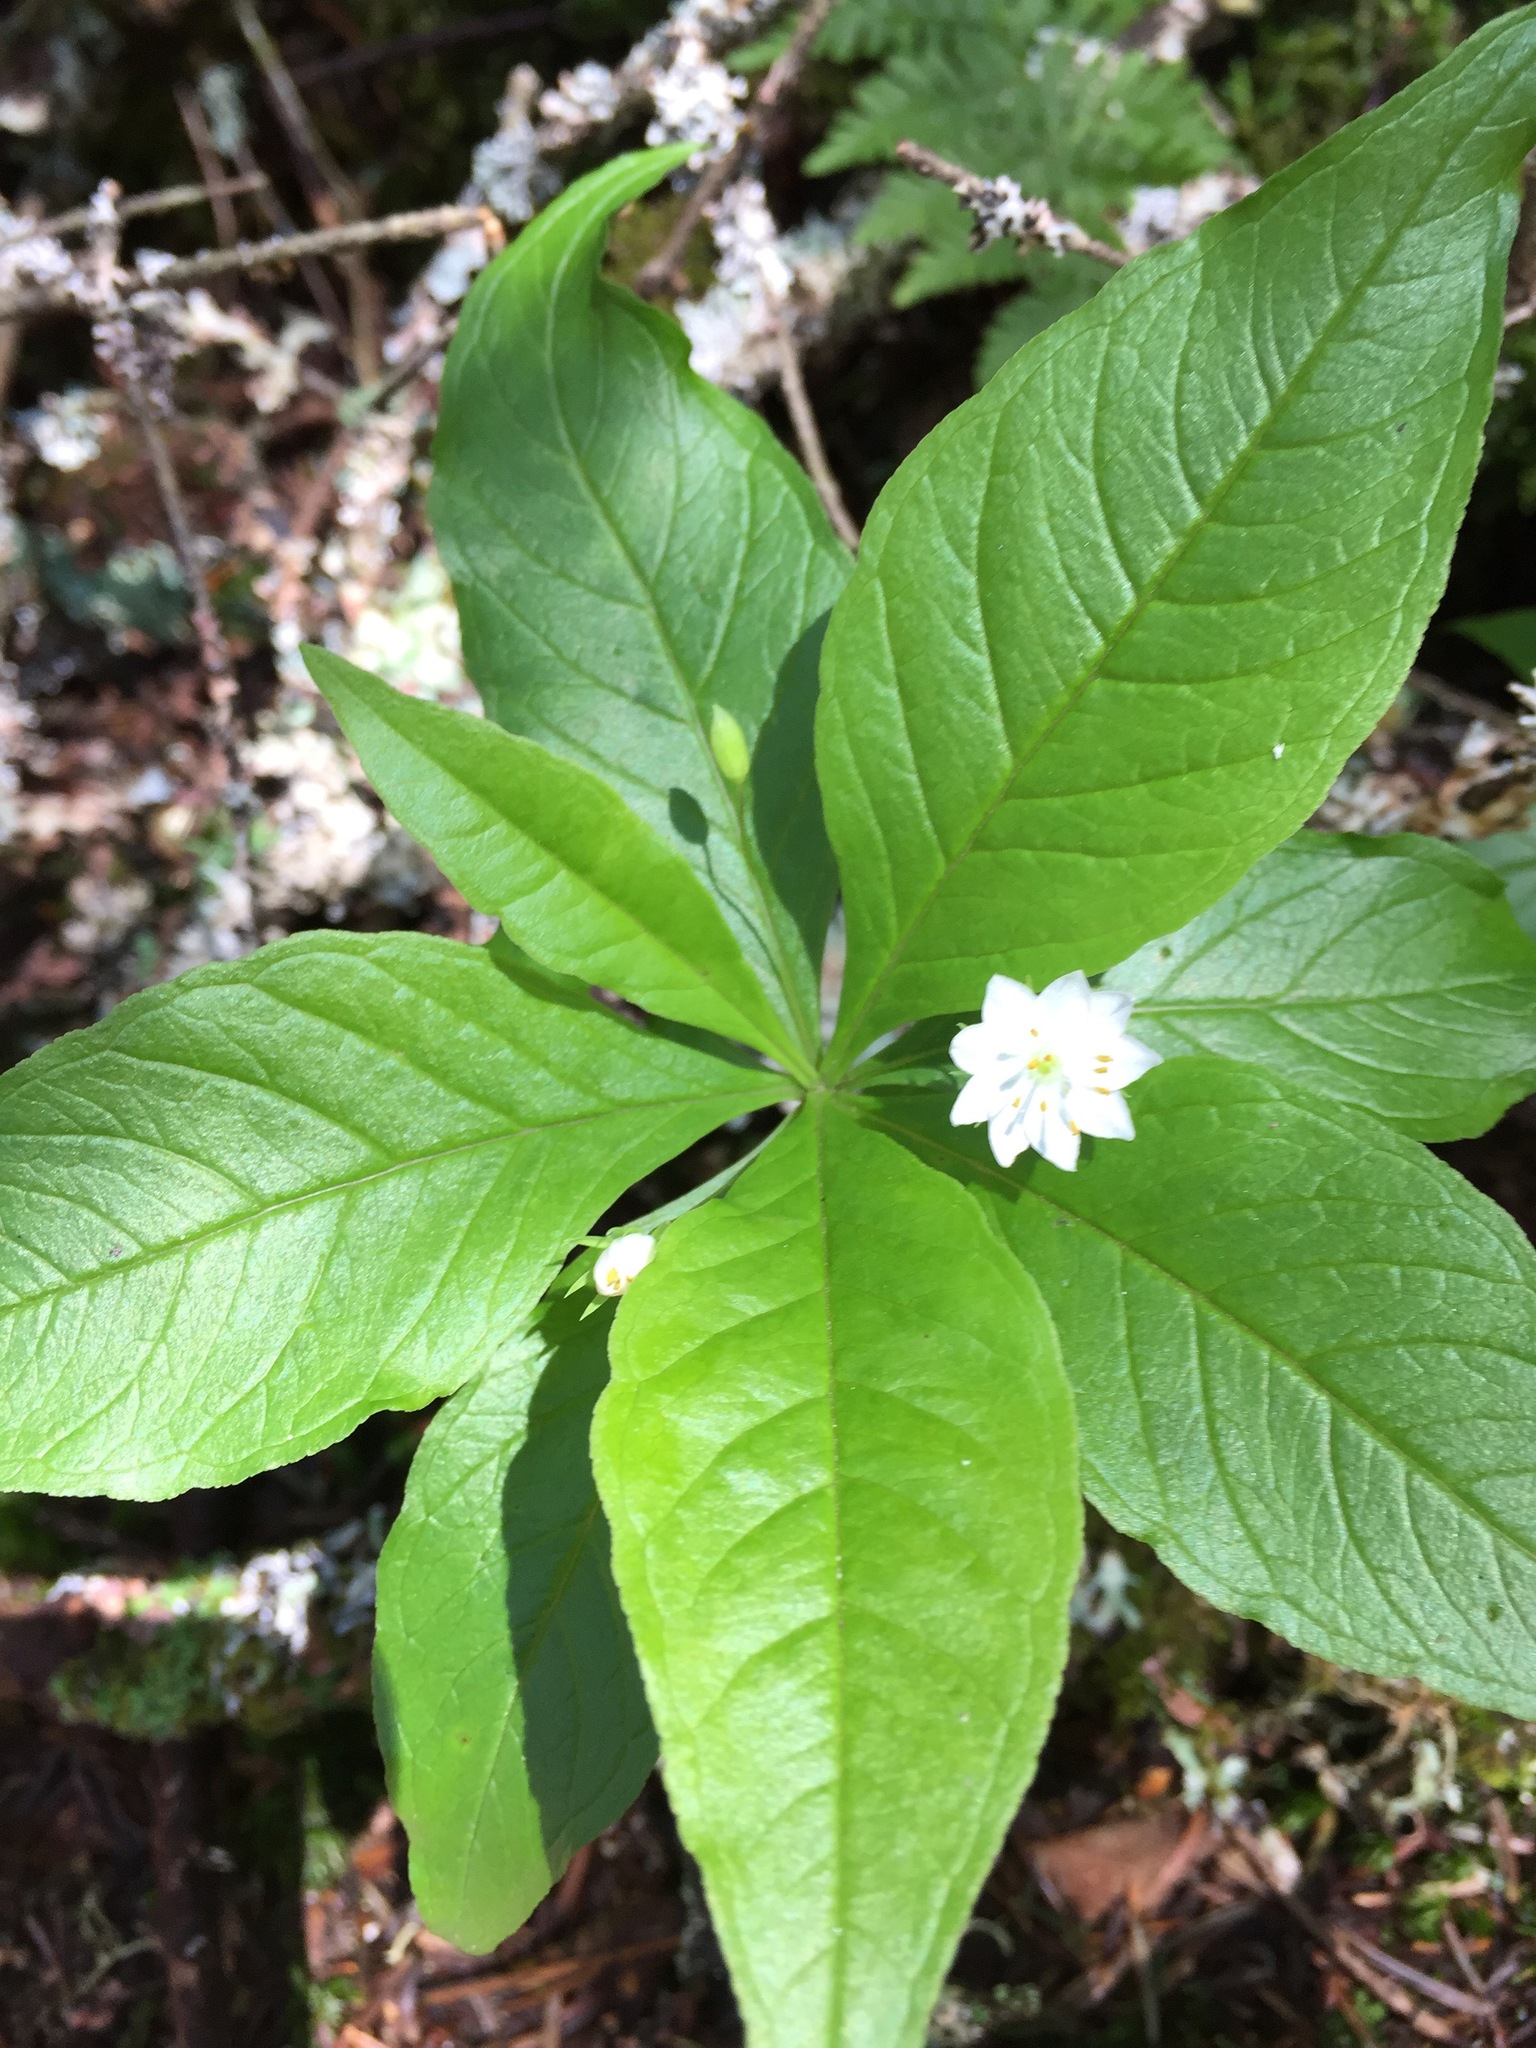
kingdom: Plantae
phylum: Tracheophyta
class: Magnoliopsida
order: Ericales
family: Primulaceae
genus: Lysimachia
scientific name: Lysimachia borealis
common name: American starflower
